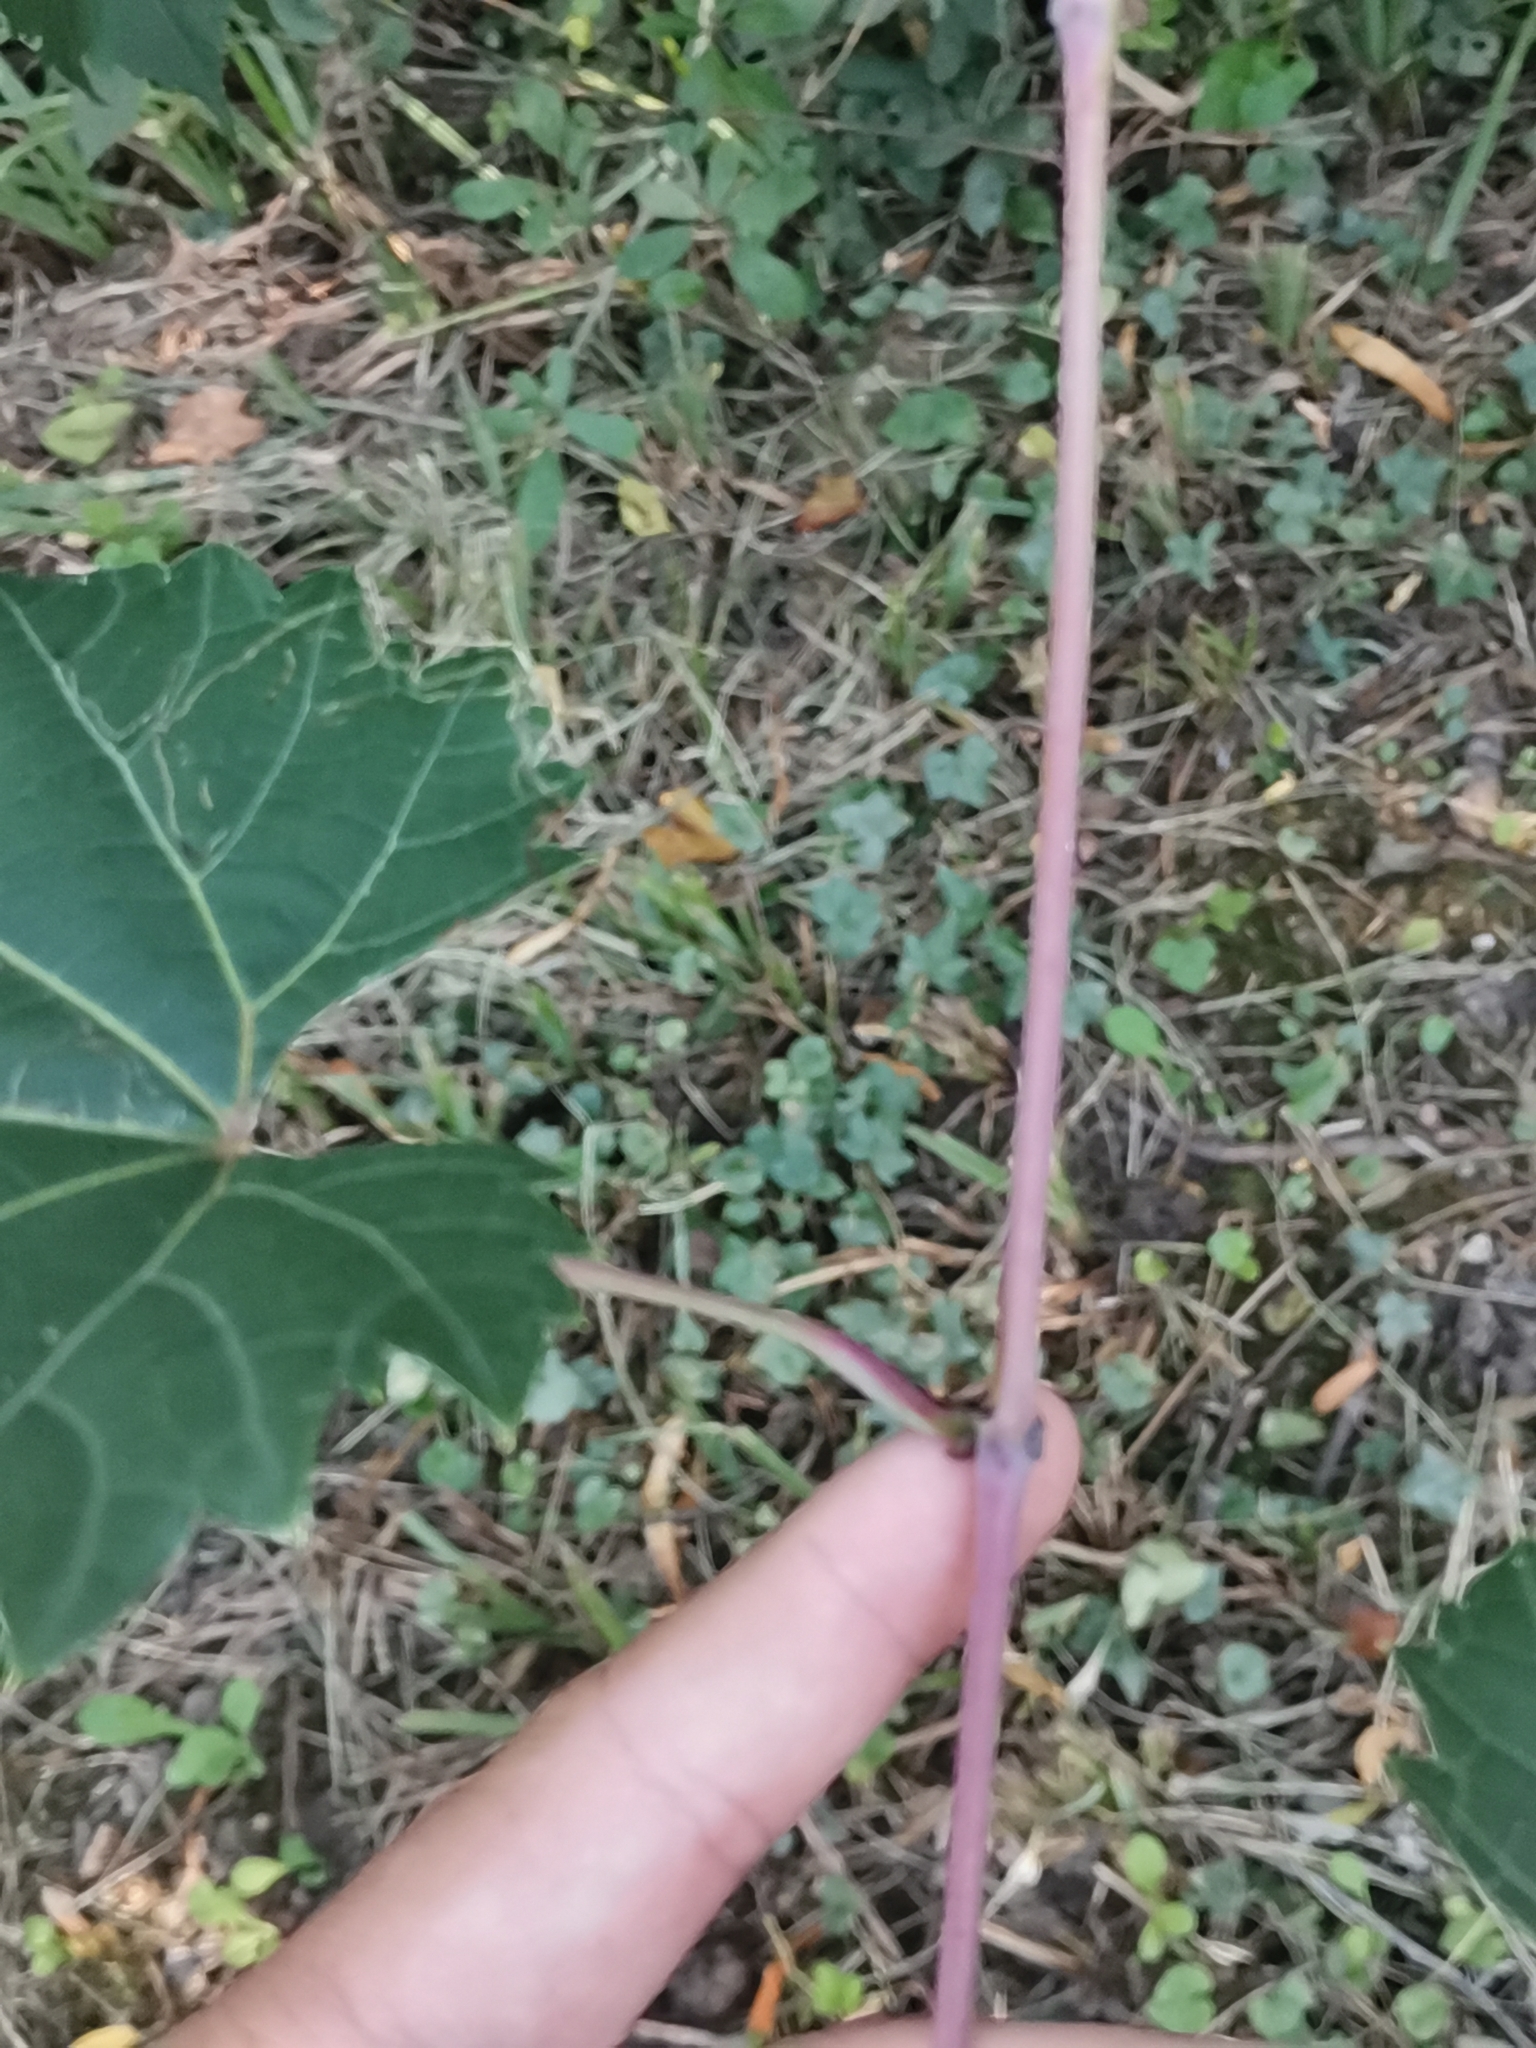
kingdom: Plantae
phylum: Tracheophyta
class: Magnoliopsida
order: Vitales
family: Vitaceae
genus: Vitis
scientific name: Vitis vinifera
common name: Grape-vine
